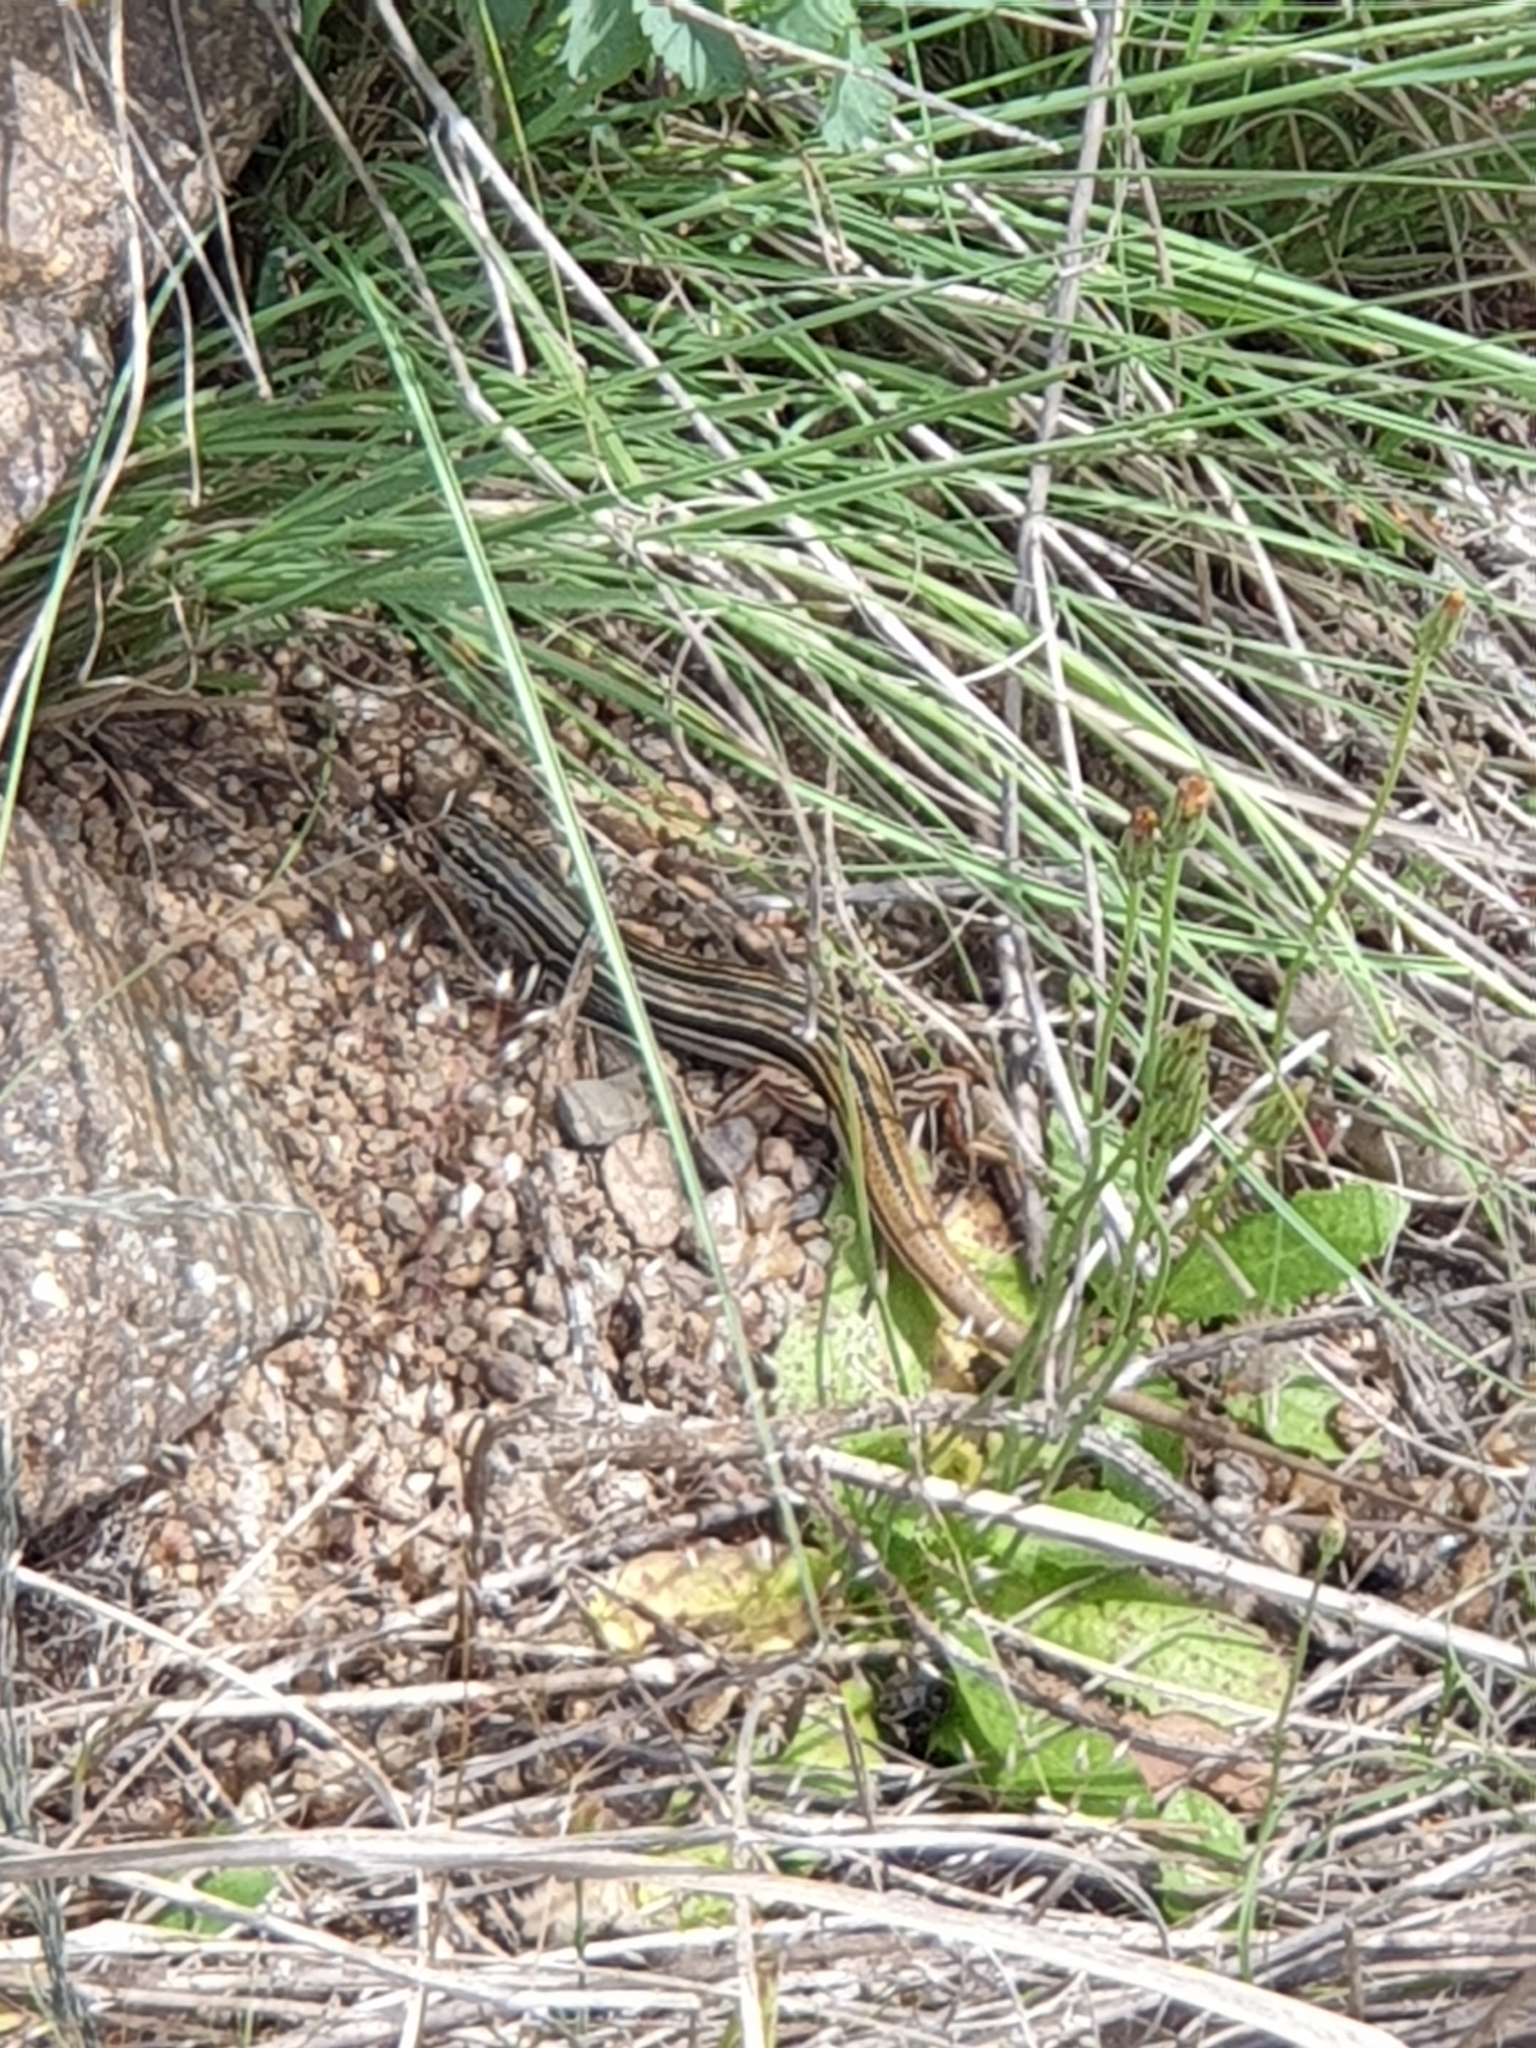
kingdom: Animalia
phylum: Chordata
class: Squamata
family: Scincidae
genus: Ctenotus
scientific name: Ctenotus taeniolatus
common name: Copper-tailed skink
